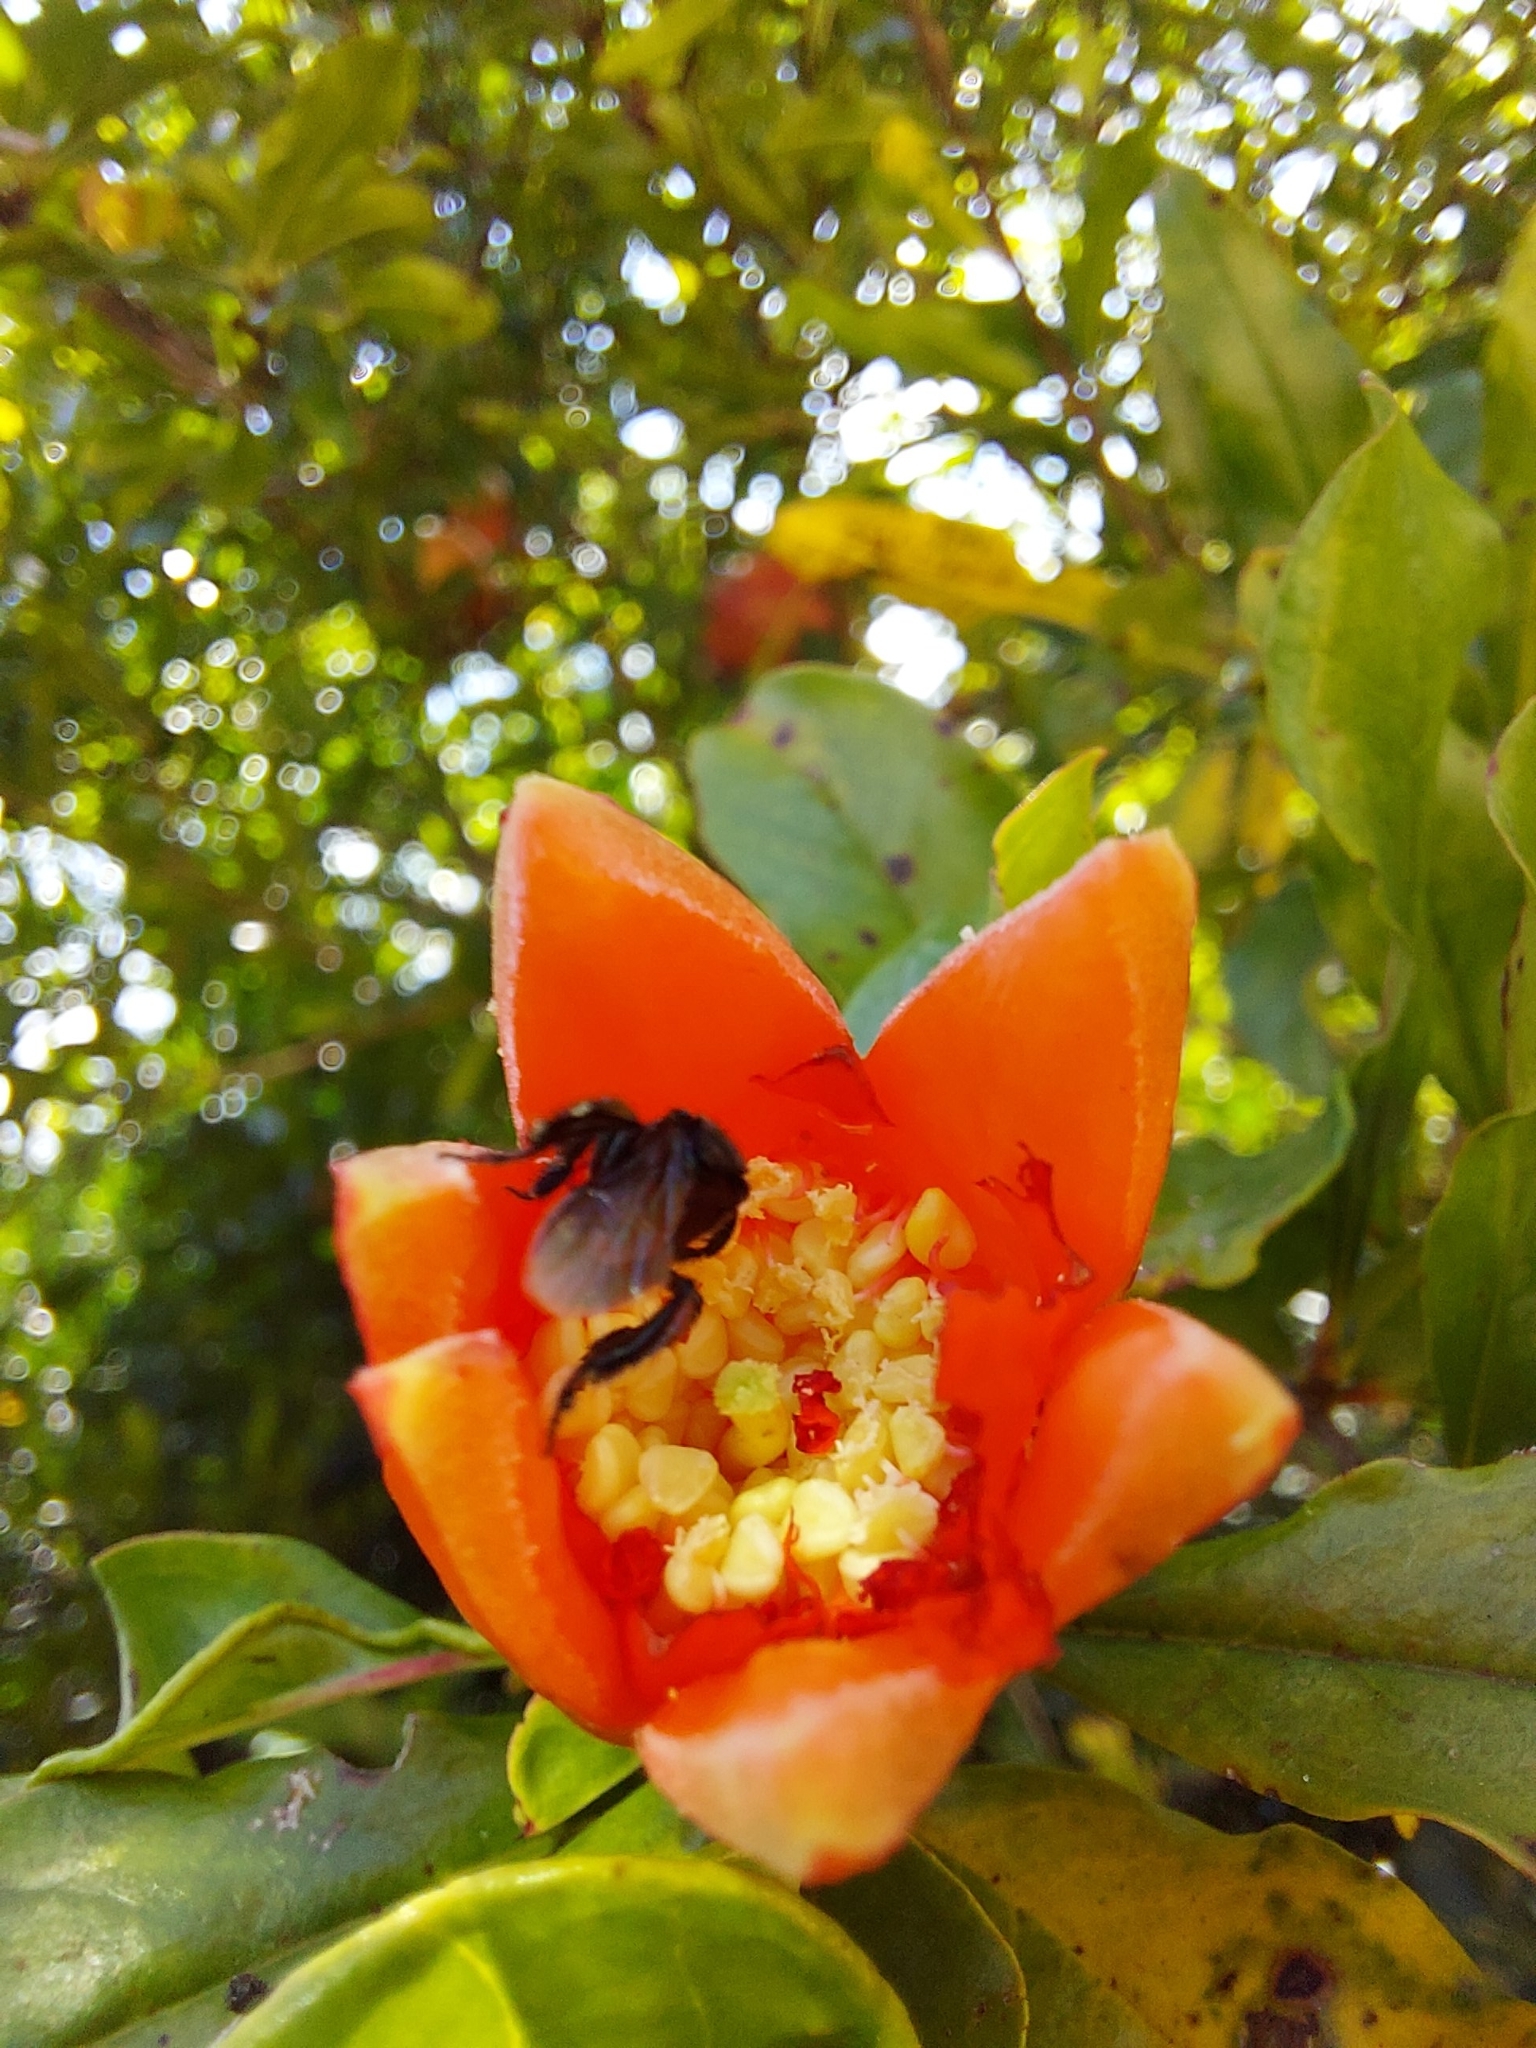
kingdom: Animalia
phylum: Arthropoda
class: Insecta
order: Hymenoptera
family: Apidae
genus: Trigona
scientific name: Trigona spinipes
